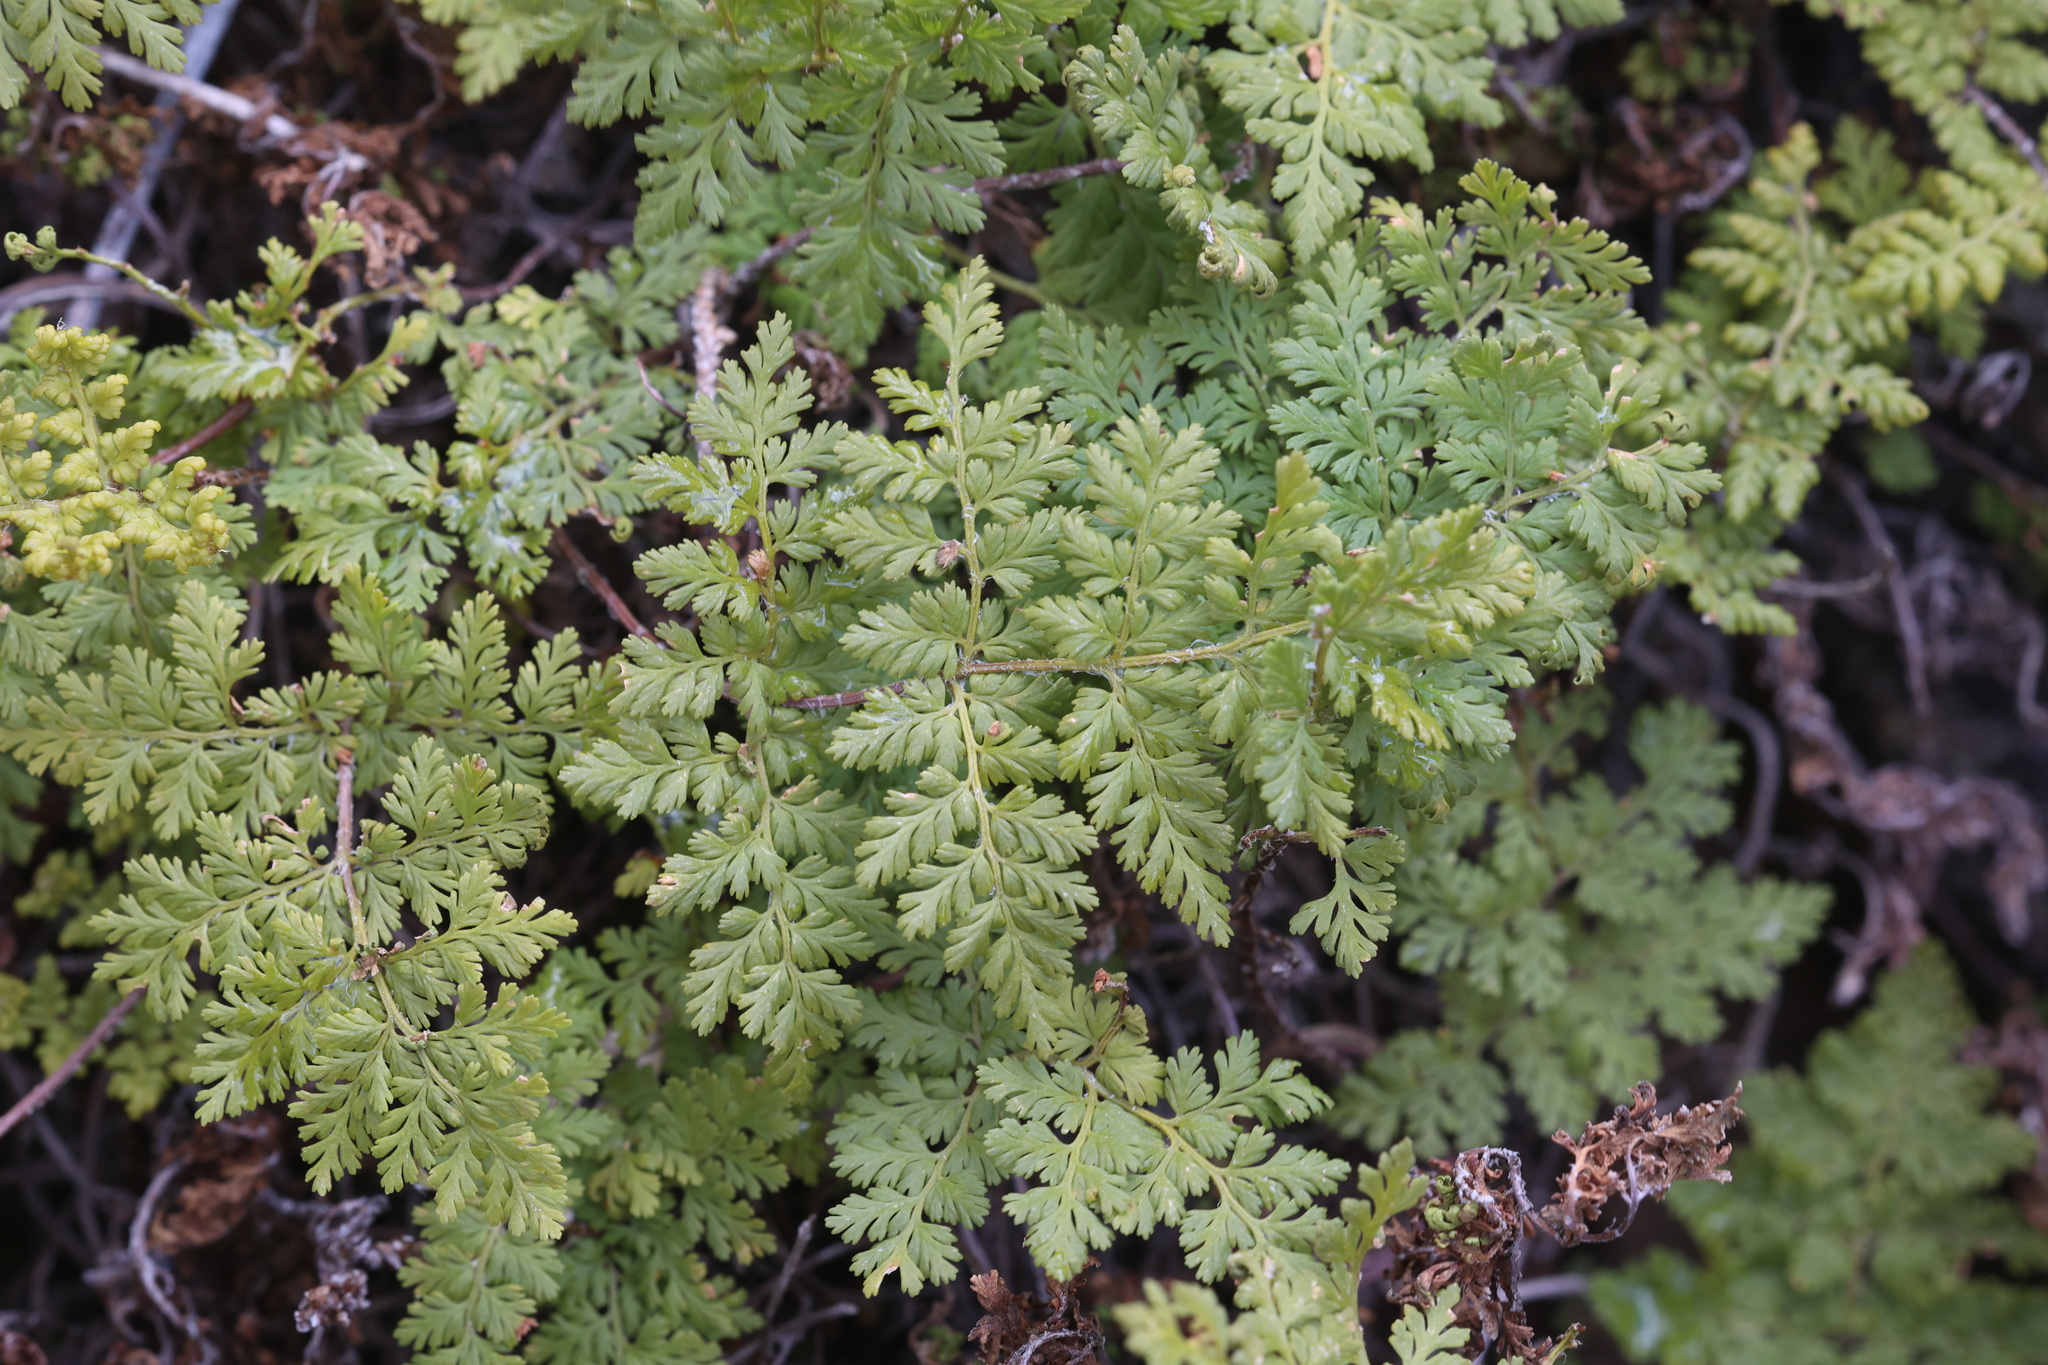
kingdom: Plantae
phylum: Tracheophyta
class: Polypodiopsida
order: Polypodiales
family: Pteridaceae
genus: Myriopteris
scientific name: Myriopteris pringlei
